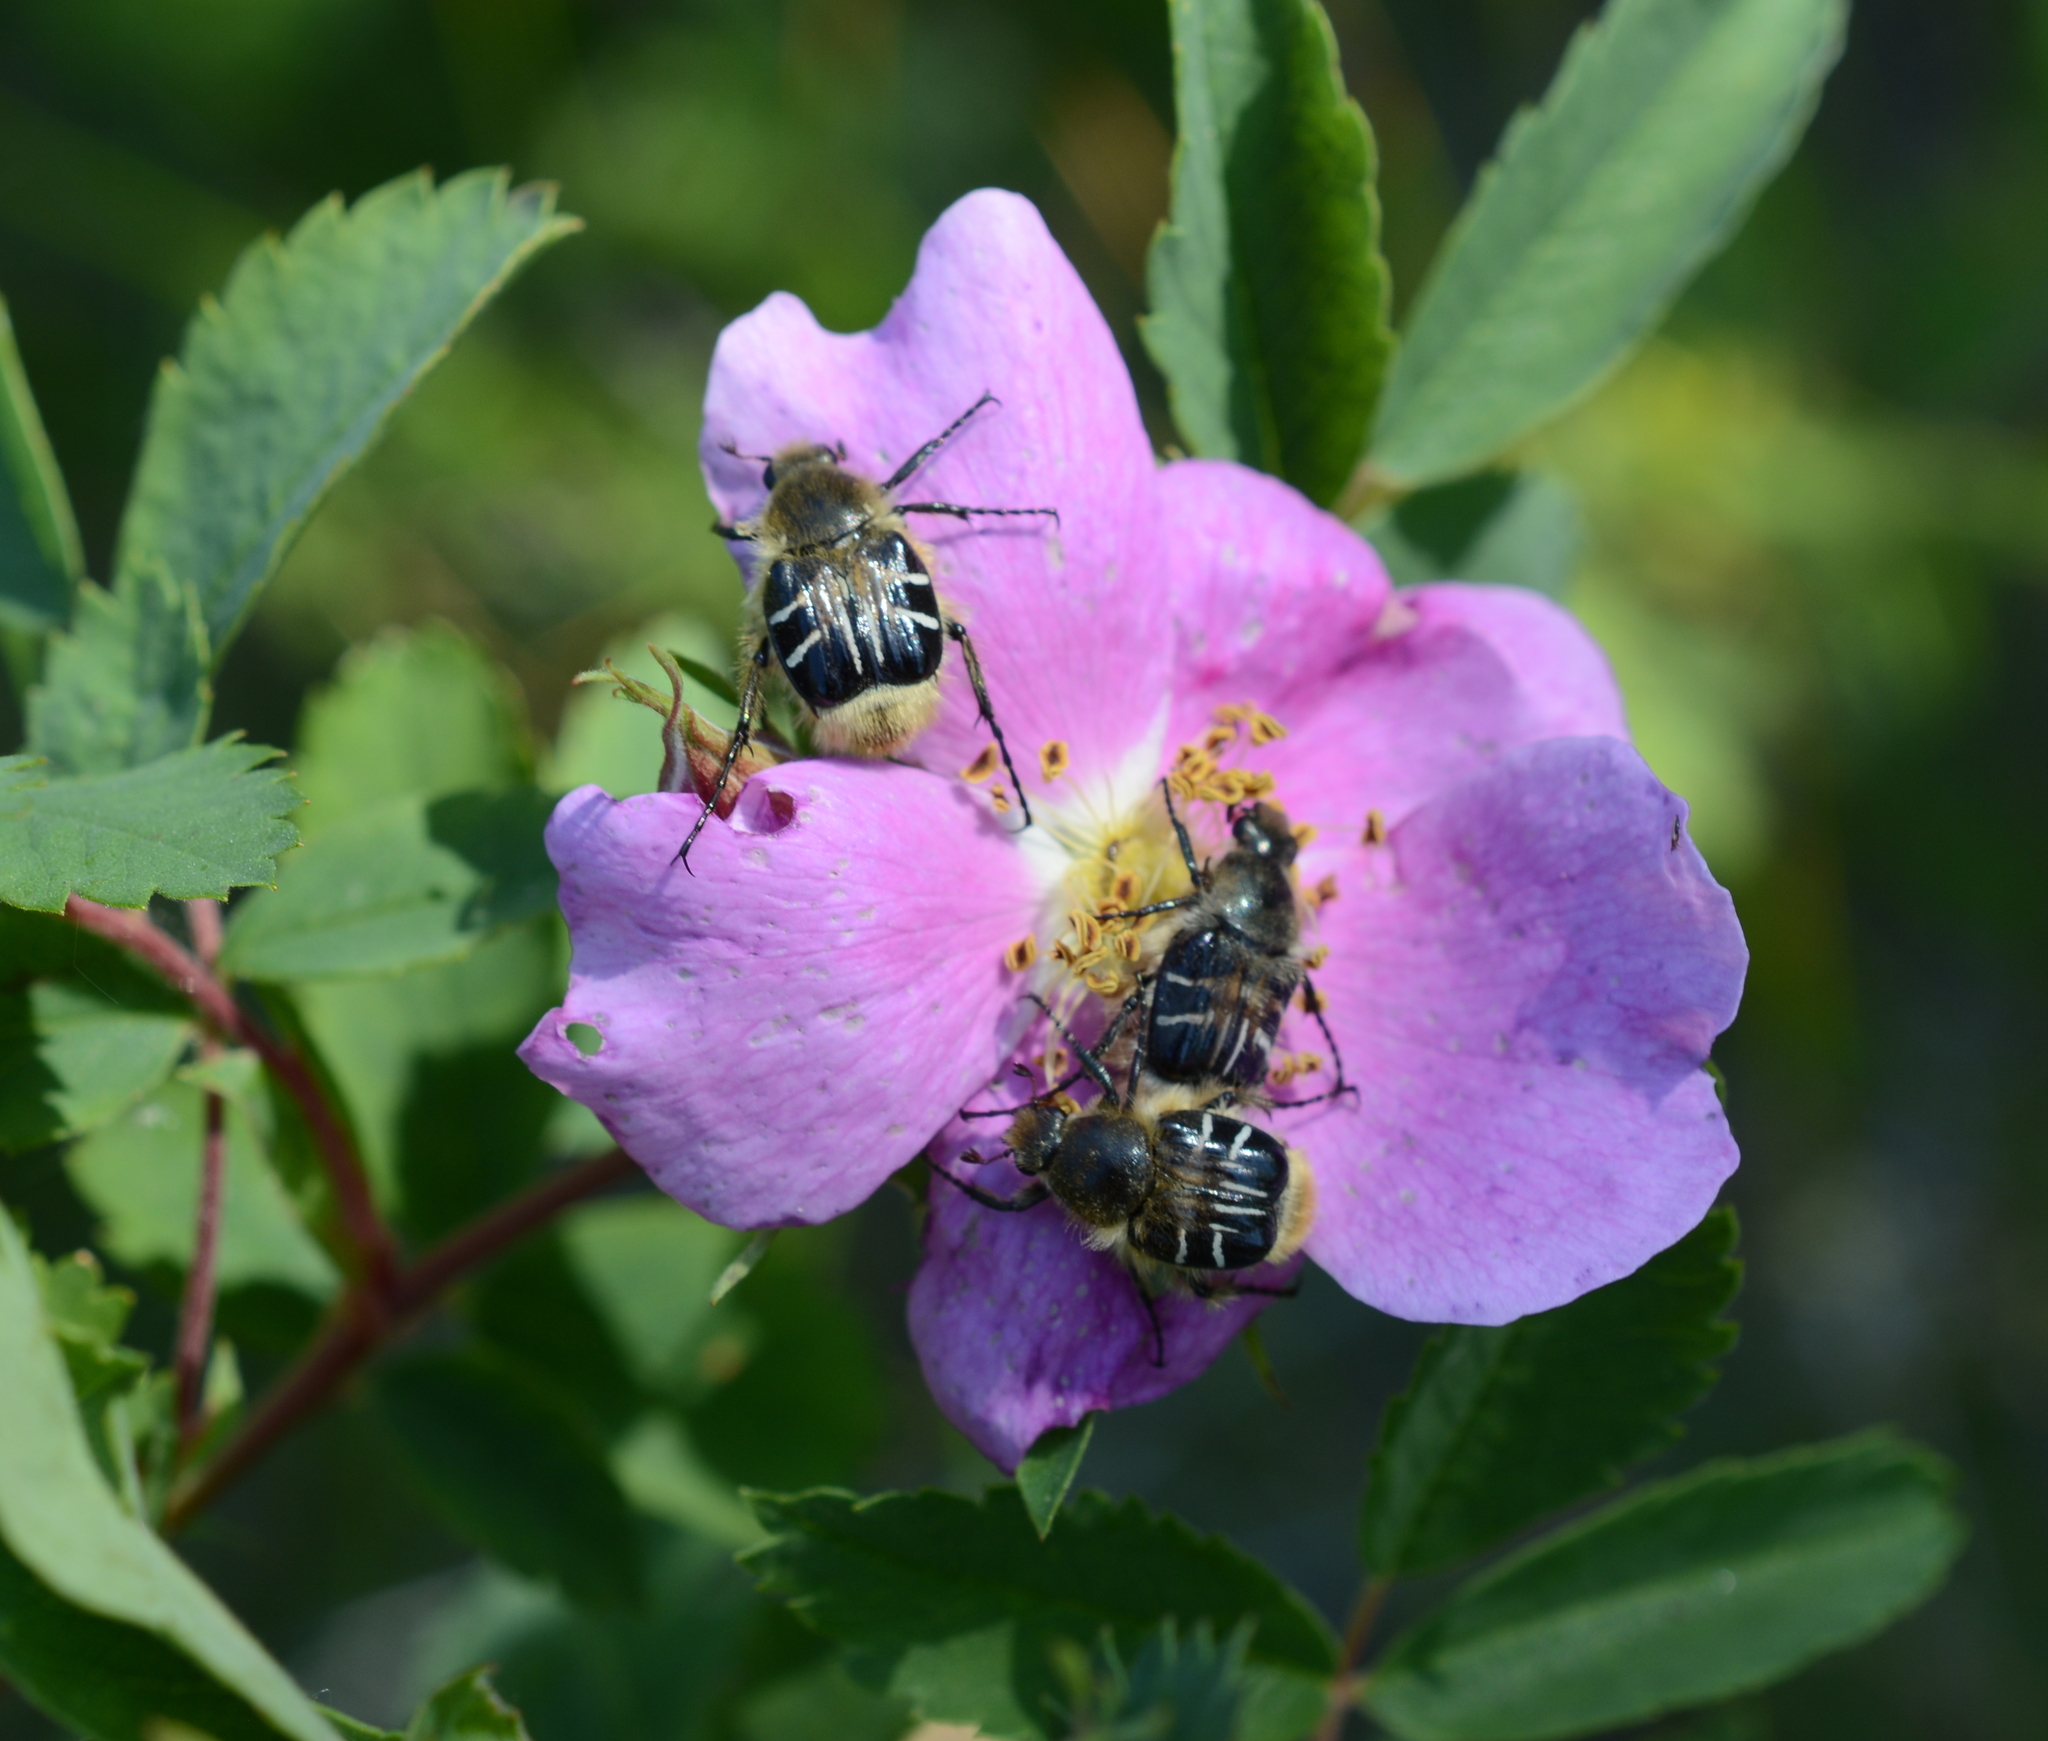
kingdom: Animalia
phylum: Arthropoda
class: Insecta
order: Coleoptera
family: Scarabaeidae
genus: Trichiotinus
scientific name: Trichiotinus assimilis
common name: Bee-mimic beetle
